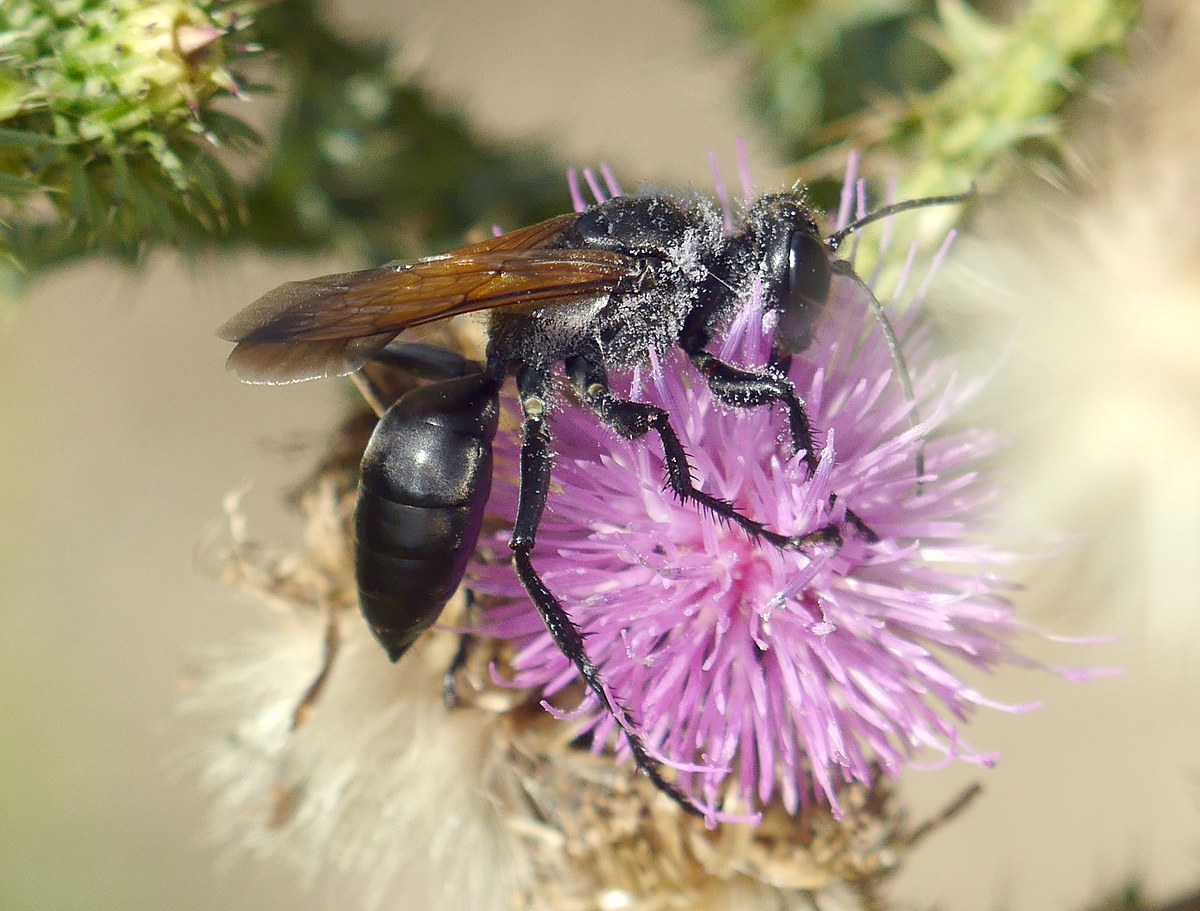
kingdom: Animalia
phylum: Arthropoda
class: Insecta
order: Hymenoptera
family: Sphecidae
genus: Sphex
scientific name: Sphex leuconotus
